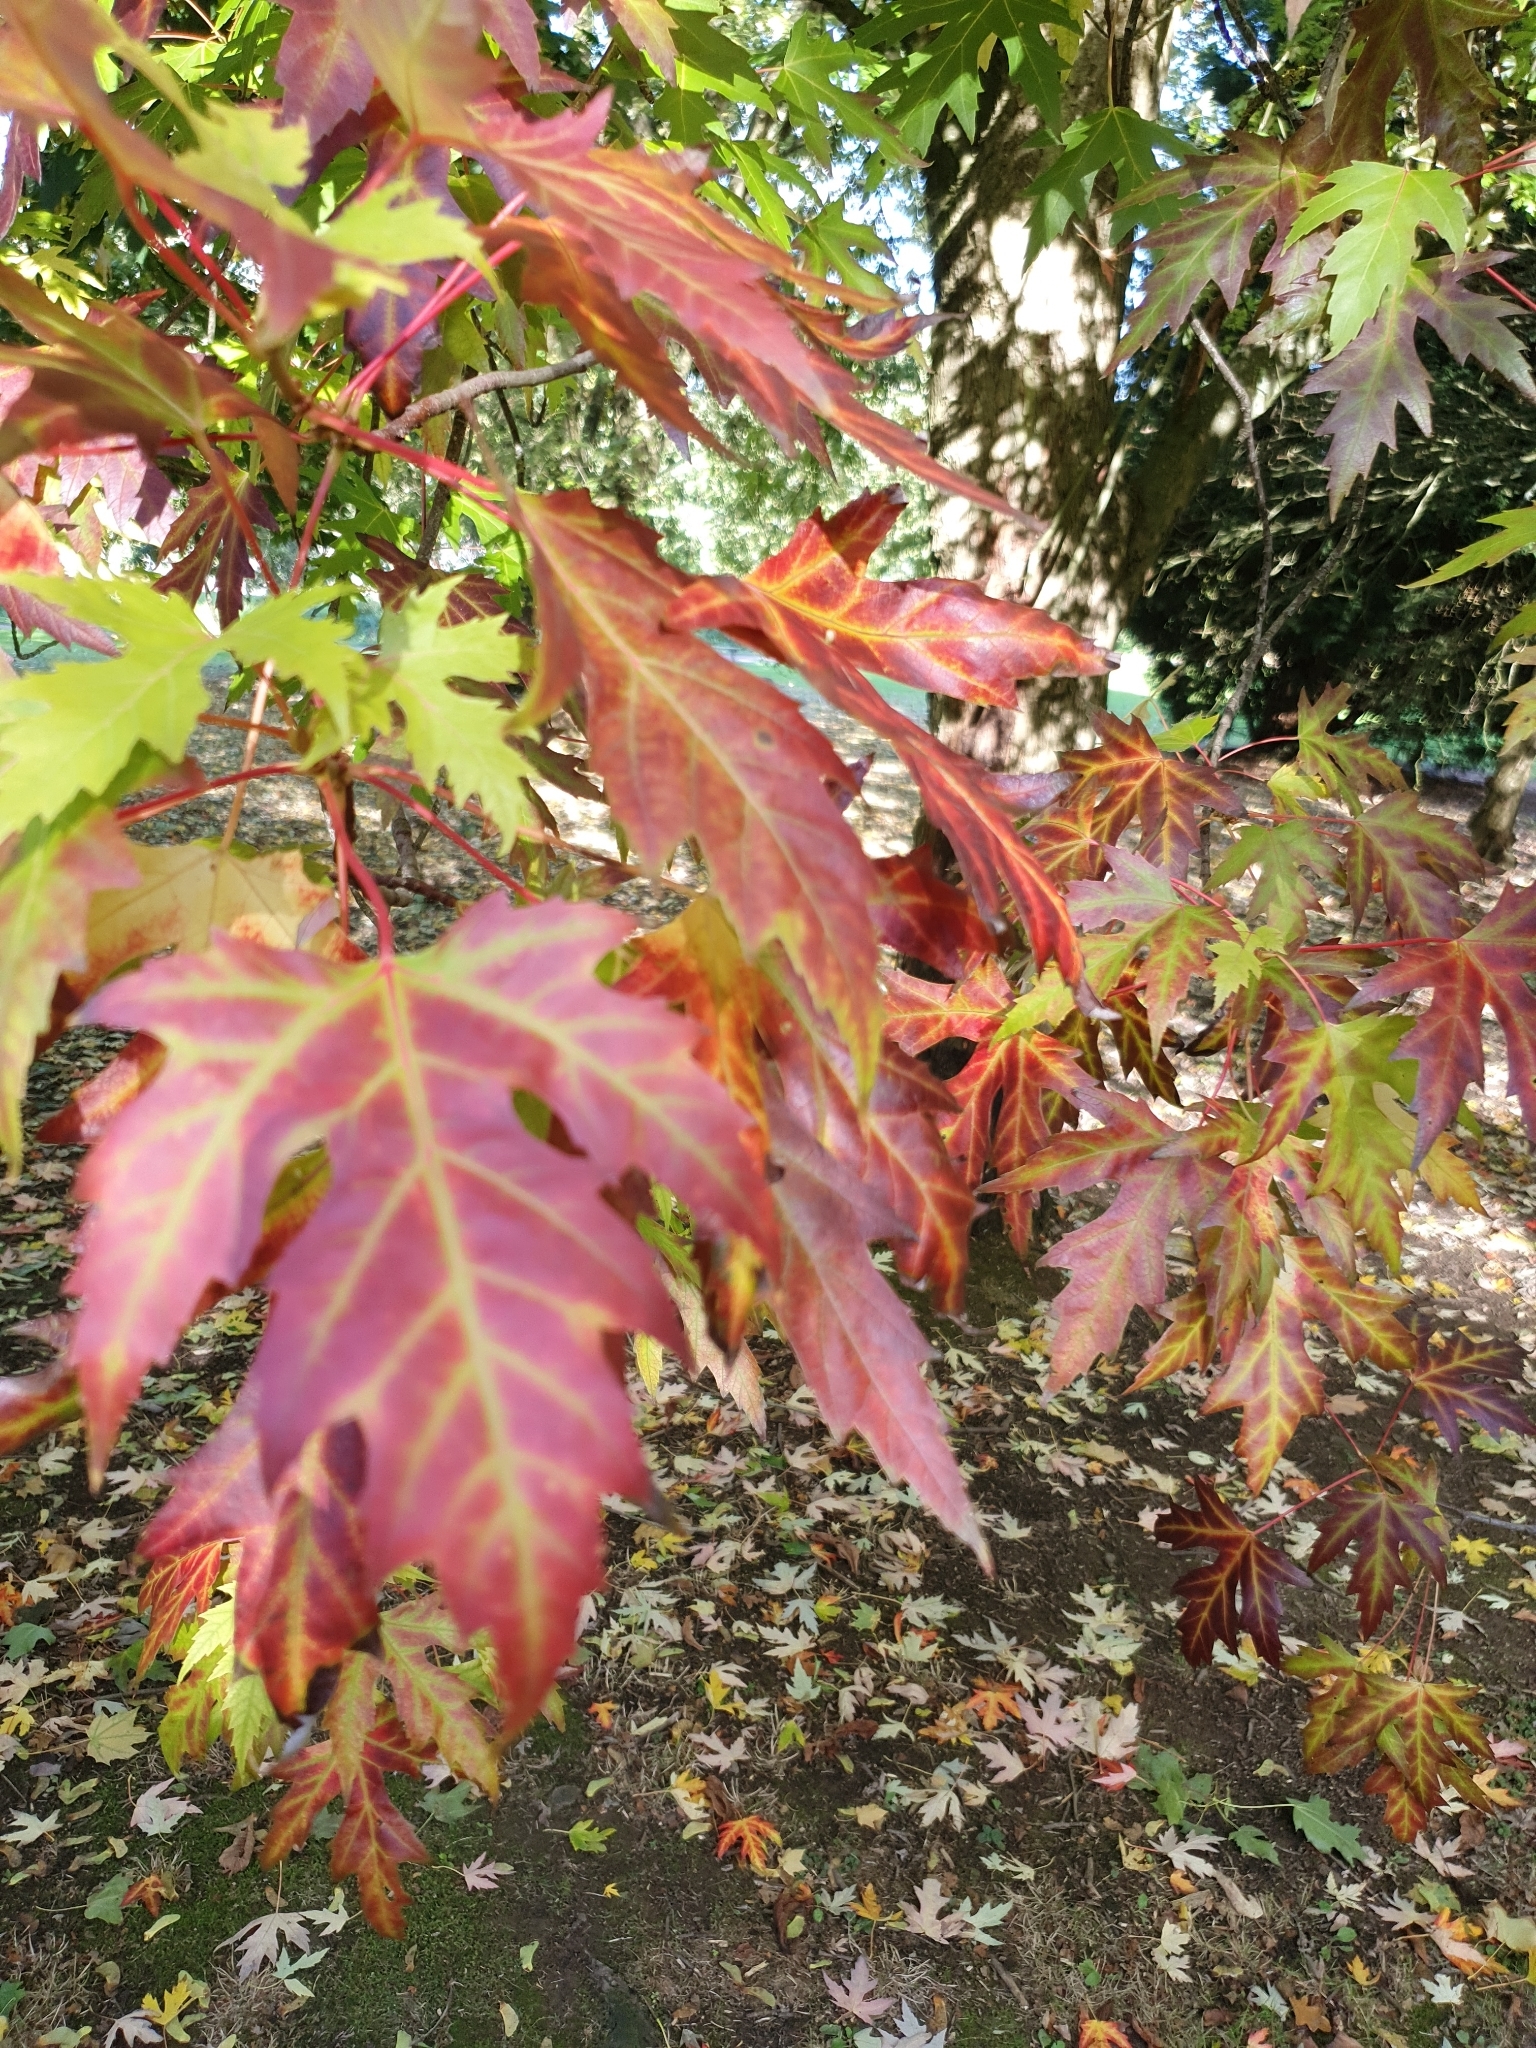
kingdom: Plantae
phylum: Tracheophyta
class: Magnoliopsida
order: Sapindales
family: Sapindaceae
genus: Acer
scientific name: Acer saccharinum
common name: Silver maple
